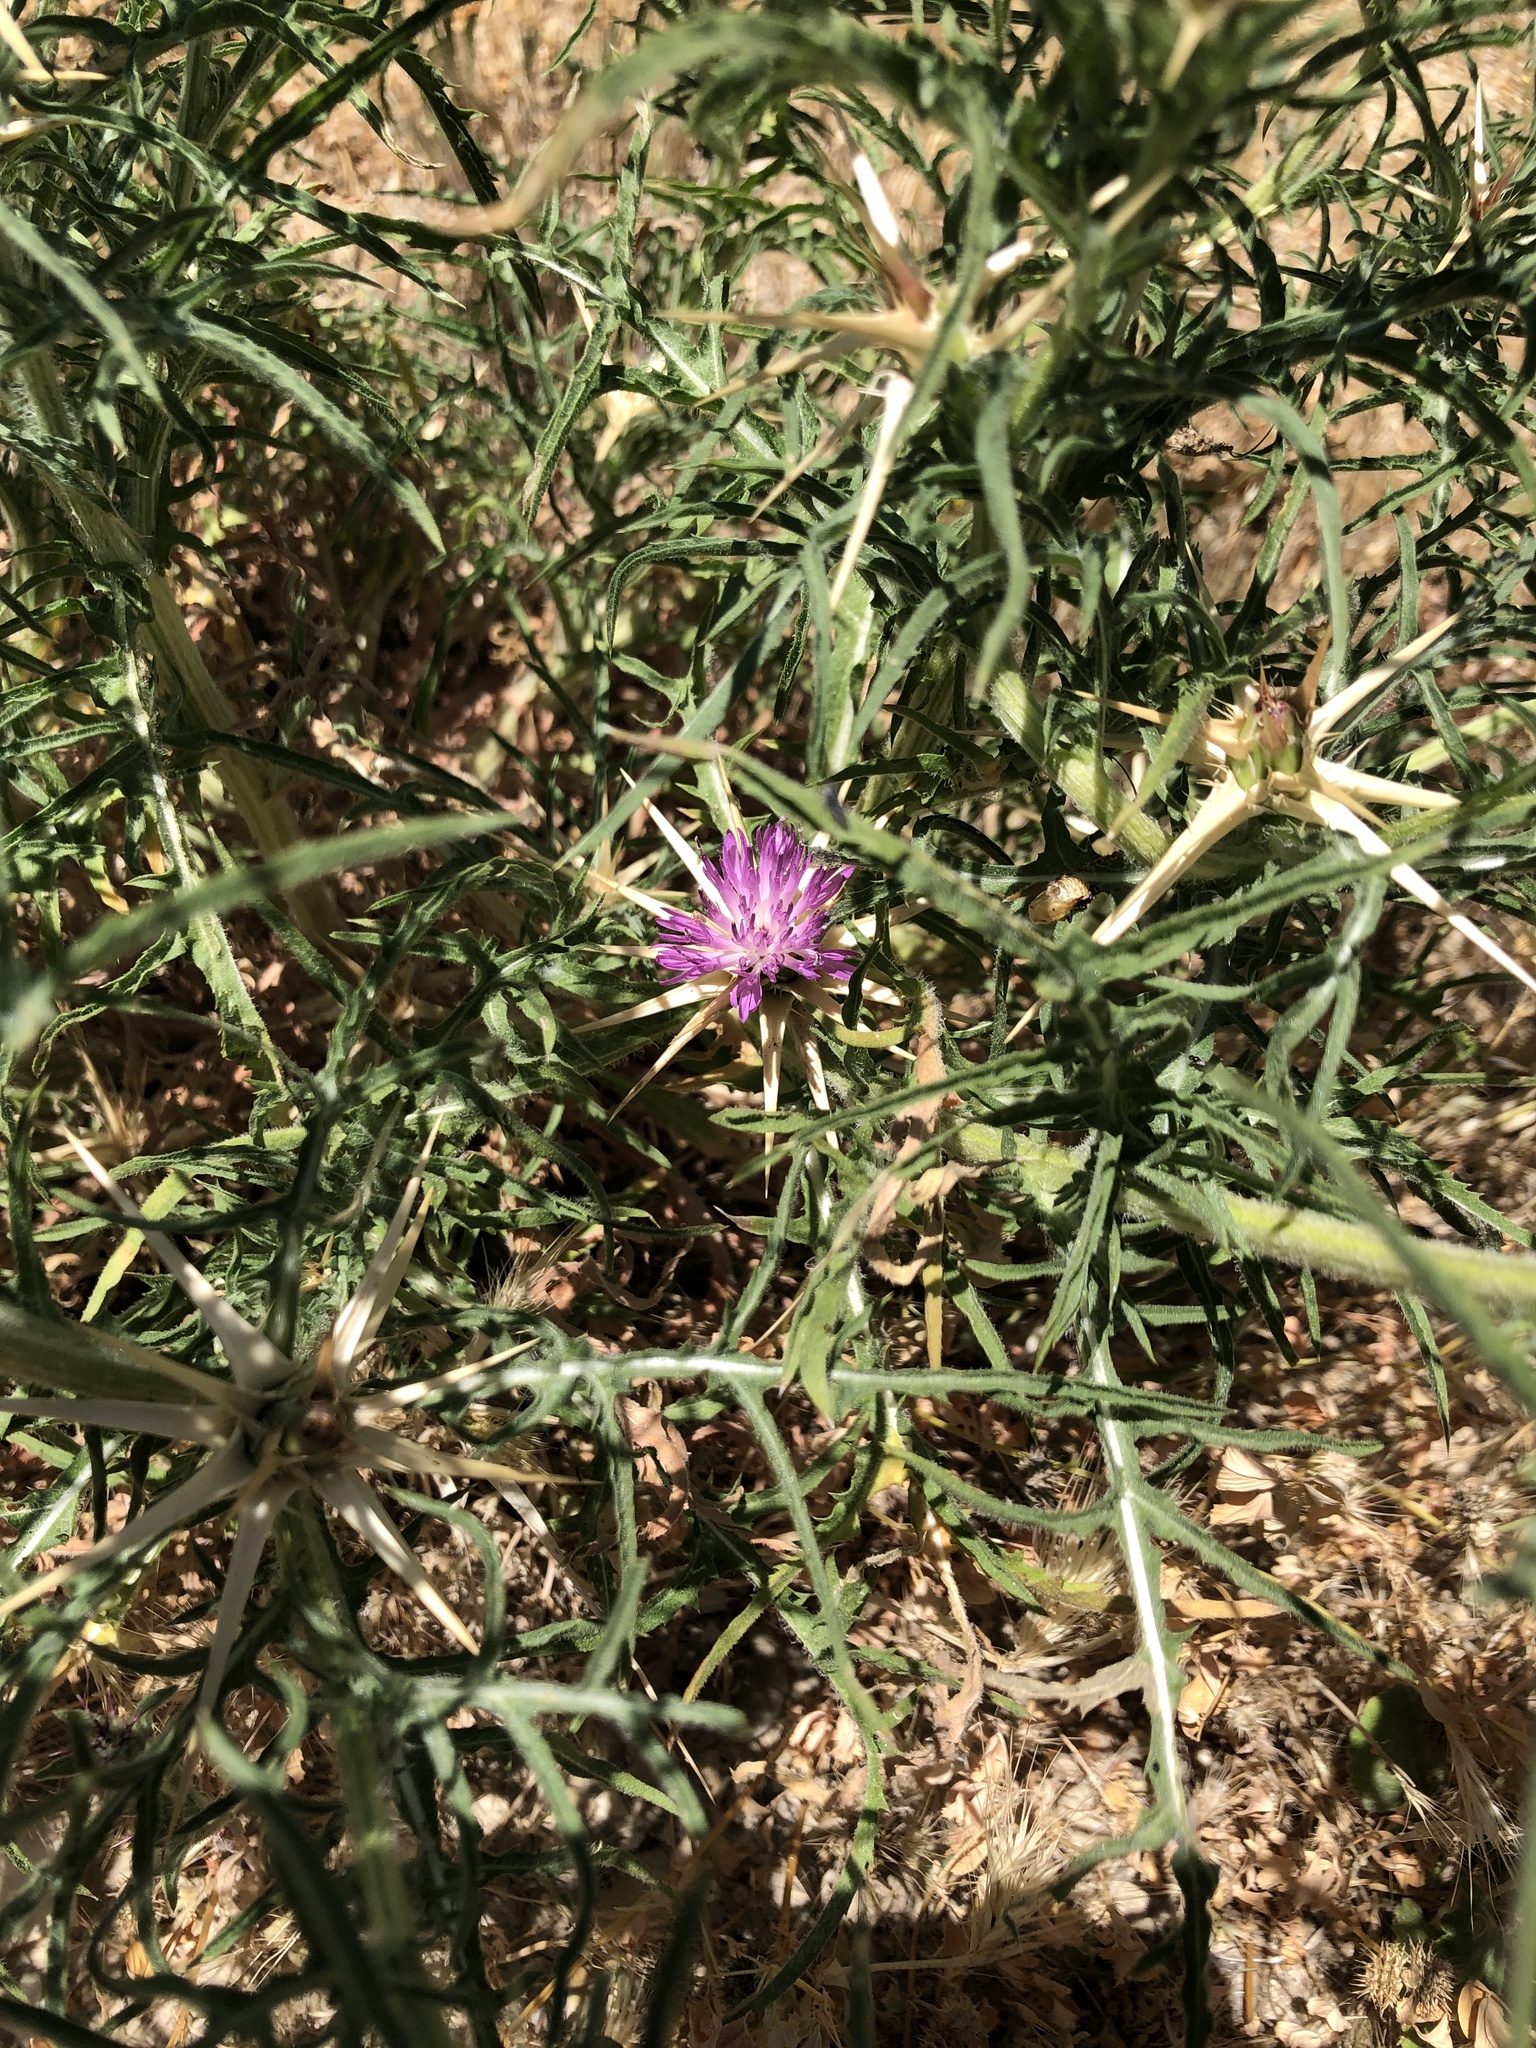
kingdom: Plantae
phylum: Tracheophyta
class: Magnoliopsida
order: Asterales
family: Asteraceae
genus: Centaurea
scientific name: Centaurea calcitrapa
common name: Red star-thistle
